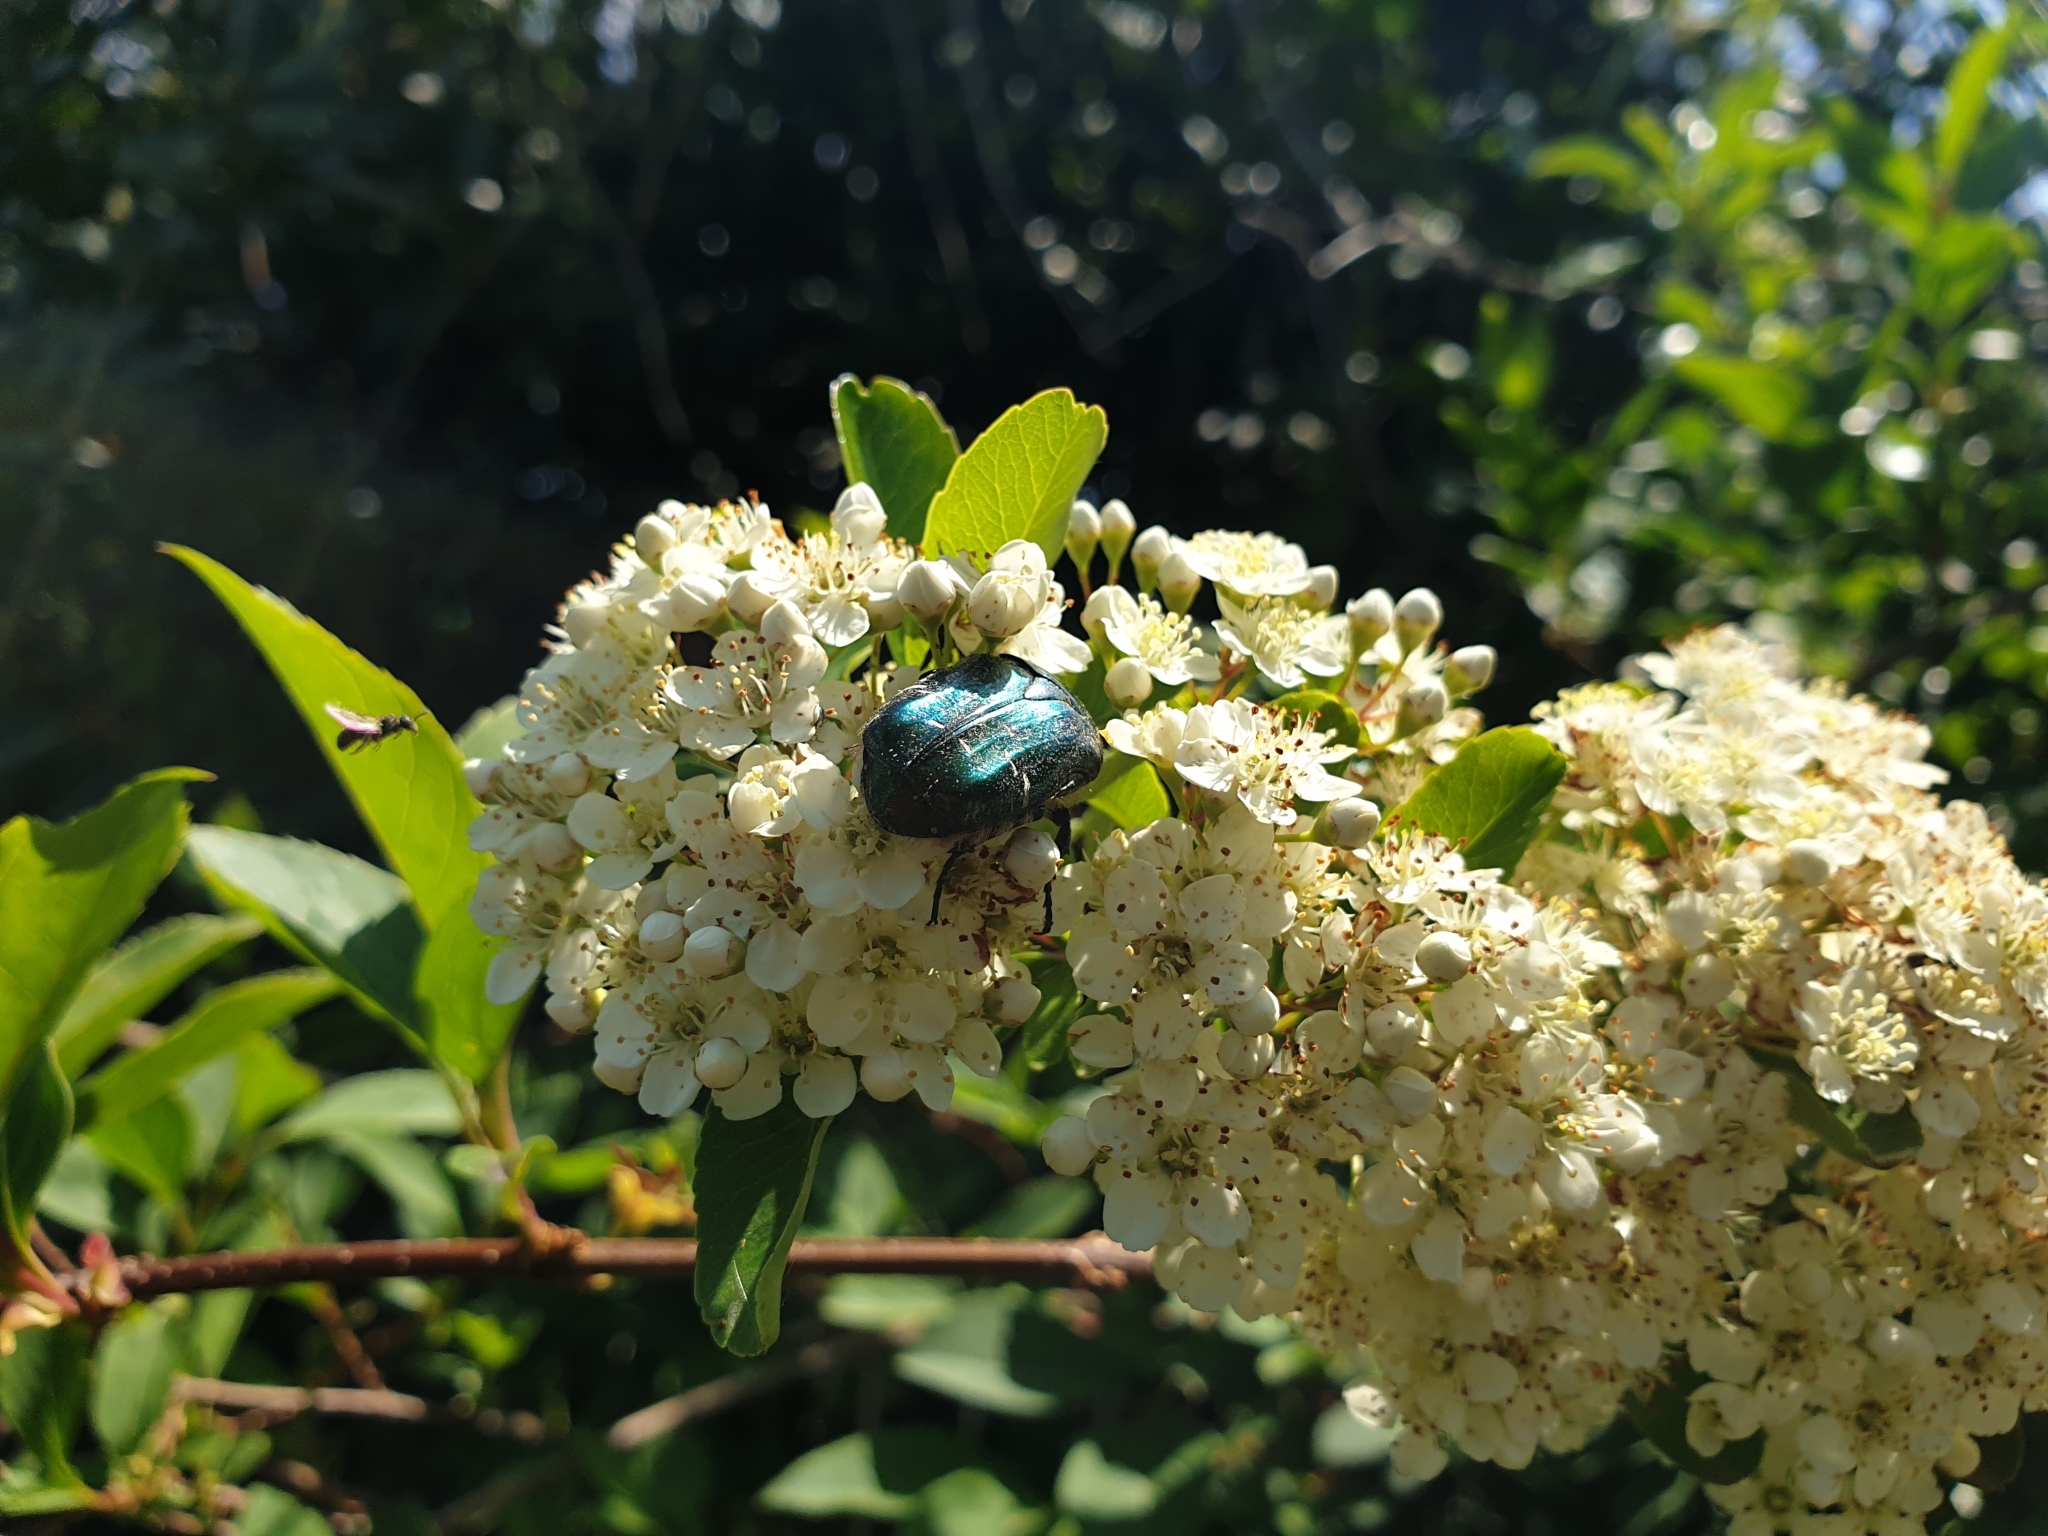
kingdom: Animalia
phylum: Arthropoda
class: Insecta
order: Coleoptera
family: Scarabaeidae
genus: Cetonia
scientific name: Cetonia aurata
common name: Rose chafer
